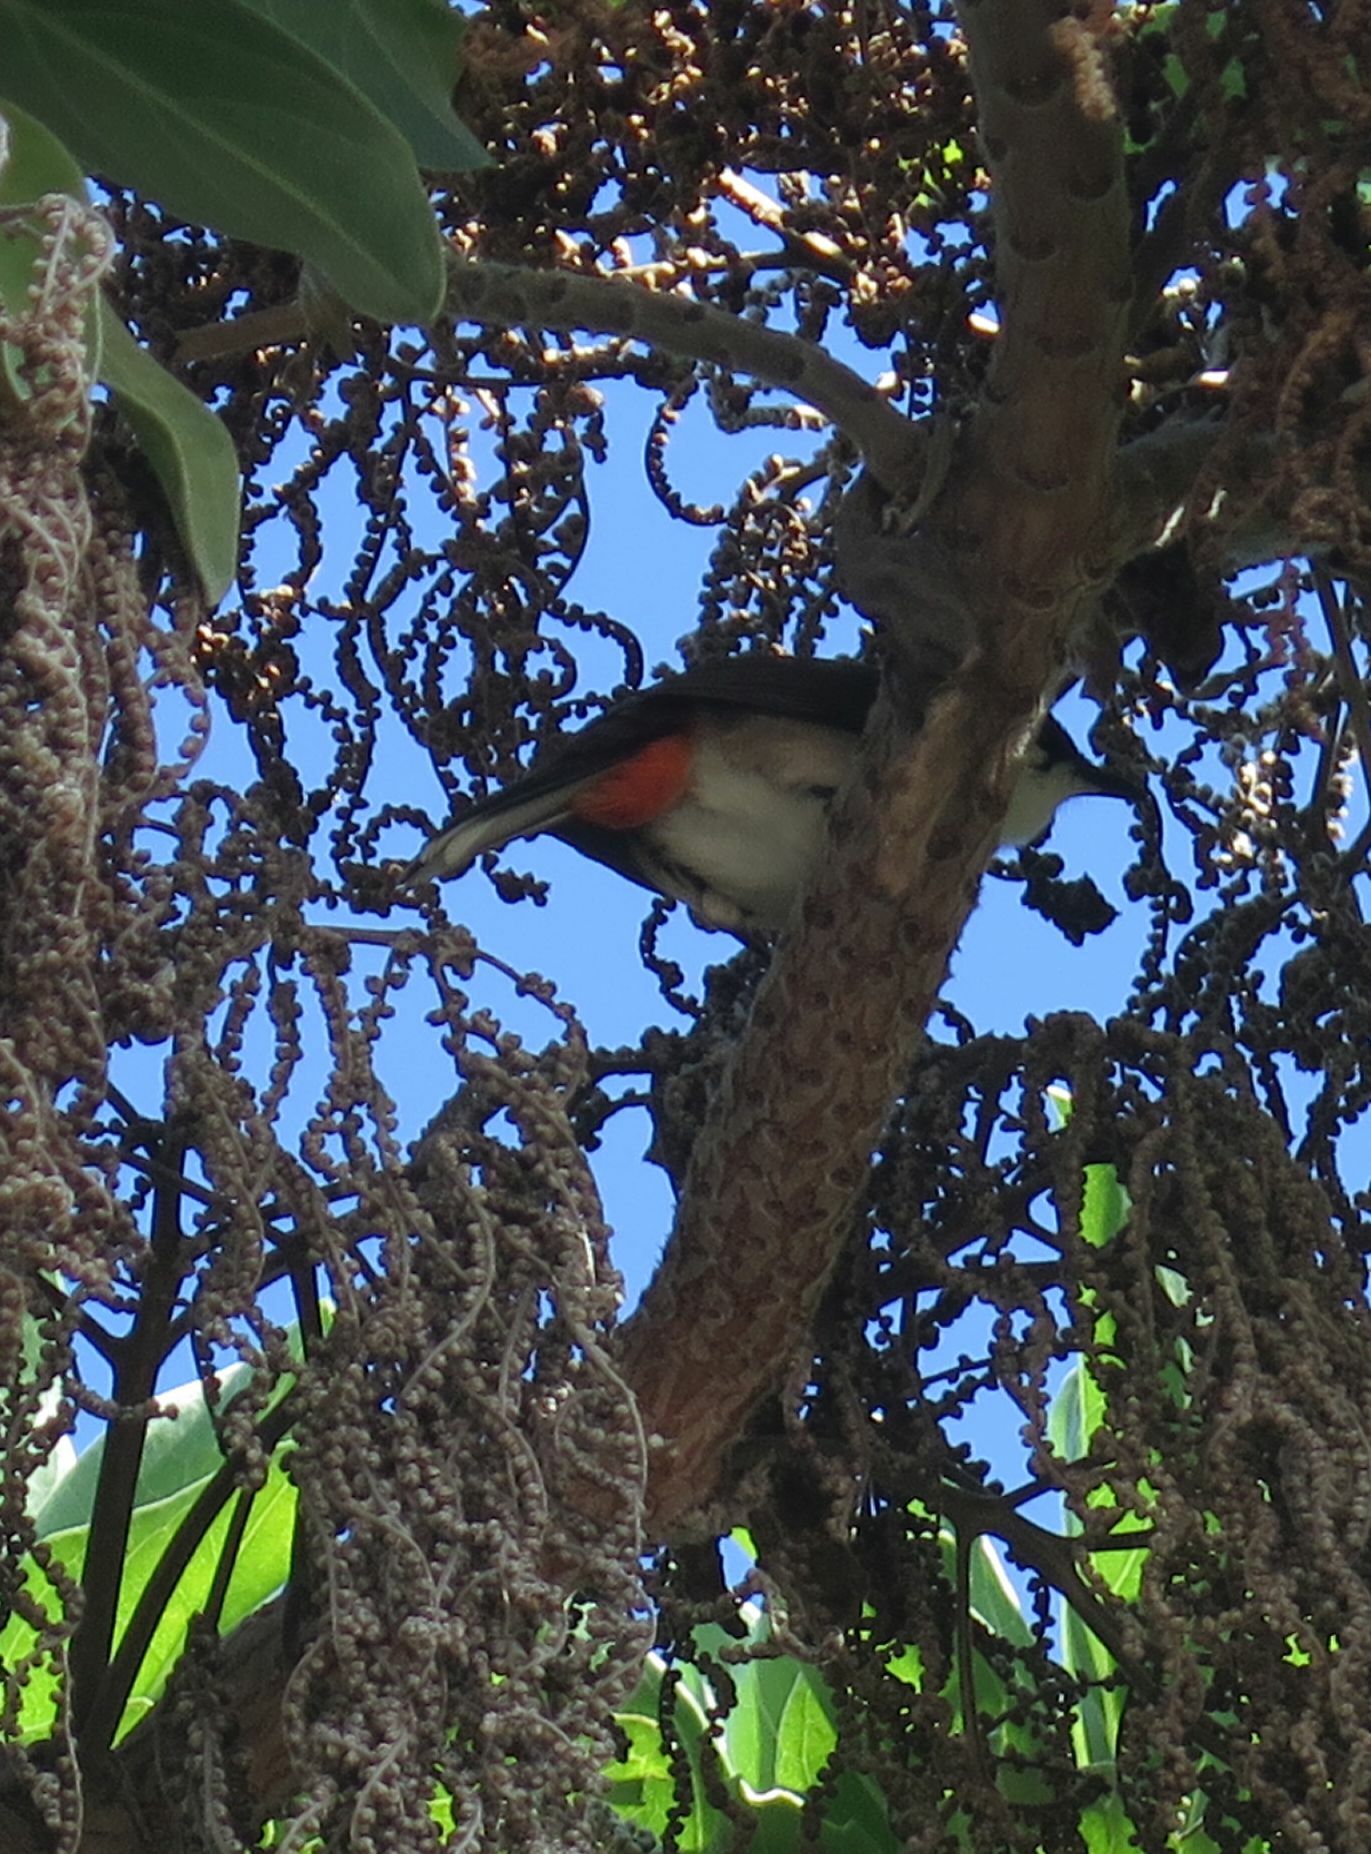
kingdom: Animalia
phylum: Chordata
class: Aves
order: Passeriformes
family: Pycnonotidae
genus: Pycnonotus
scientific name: Pycnonotus jocosus
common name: Red-whiskered bulbul
